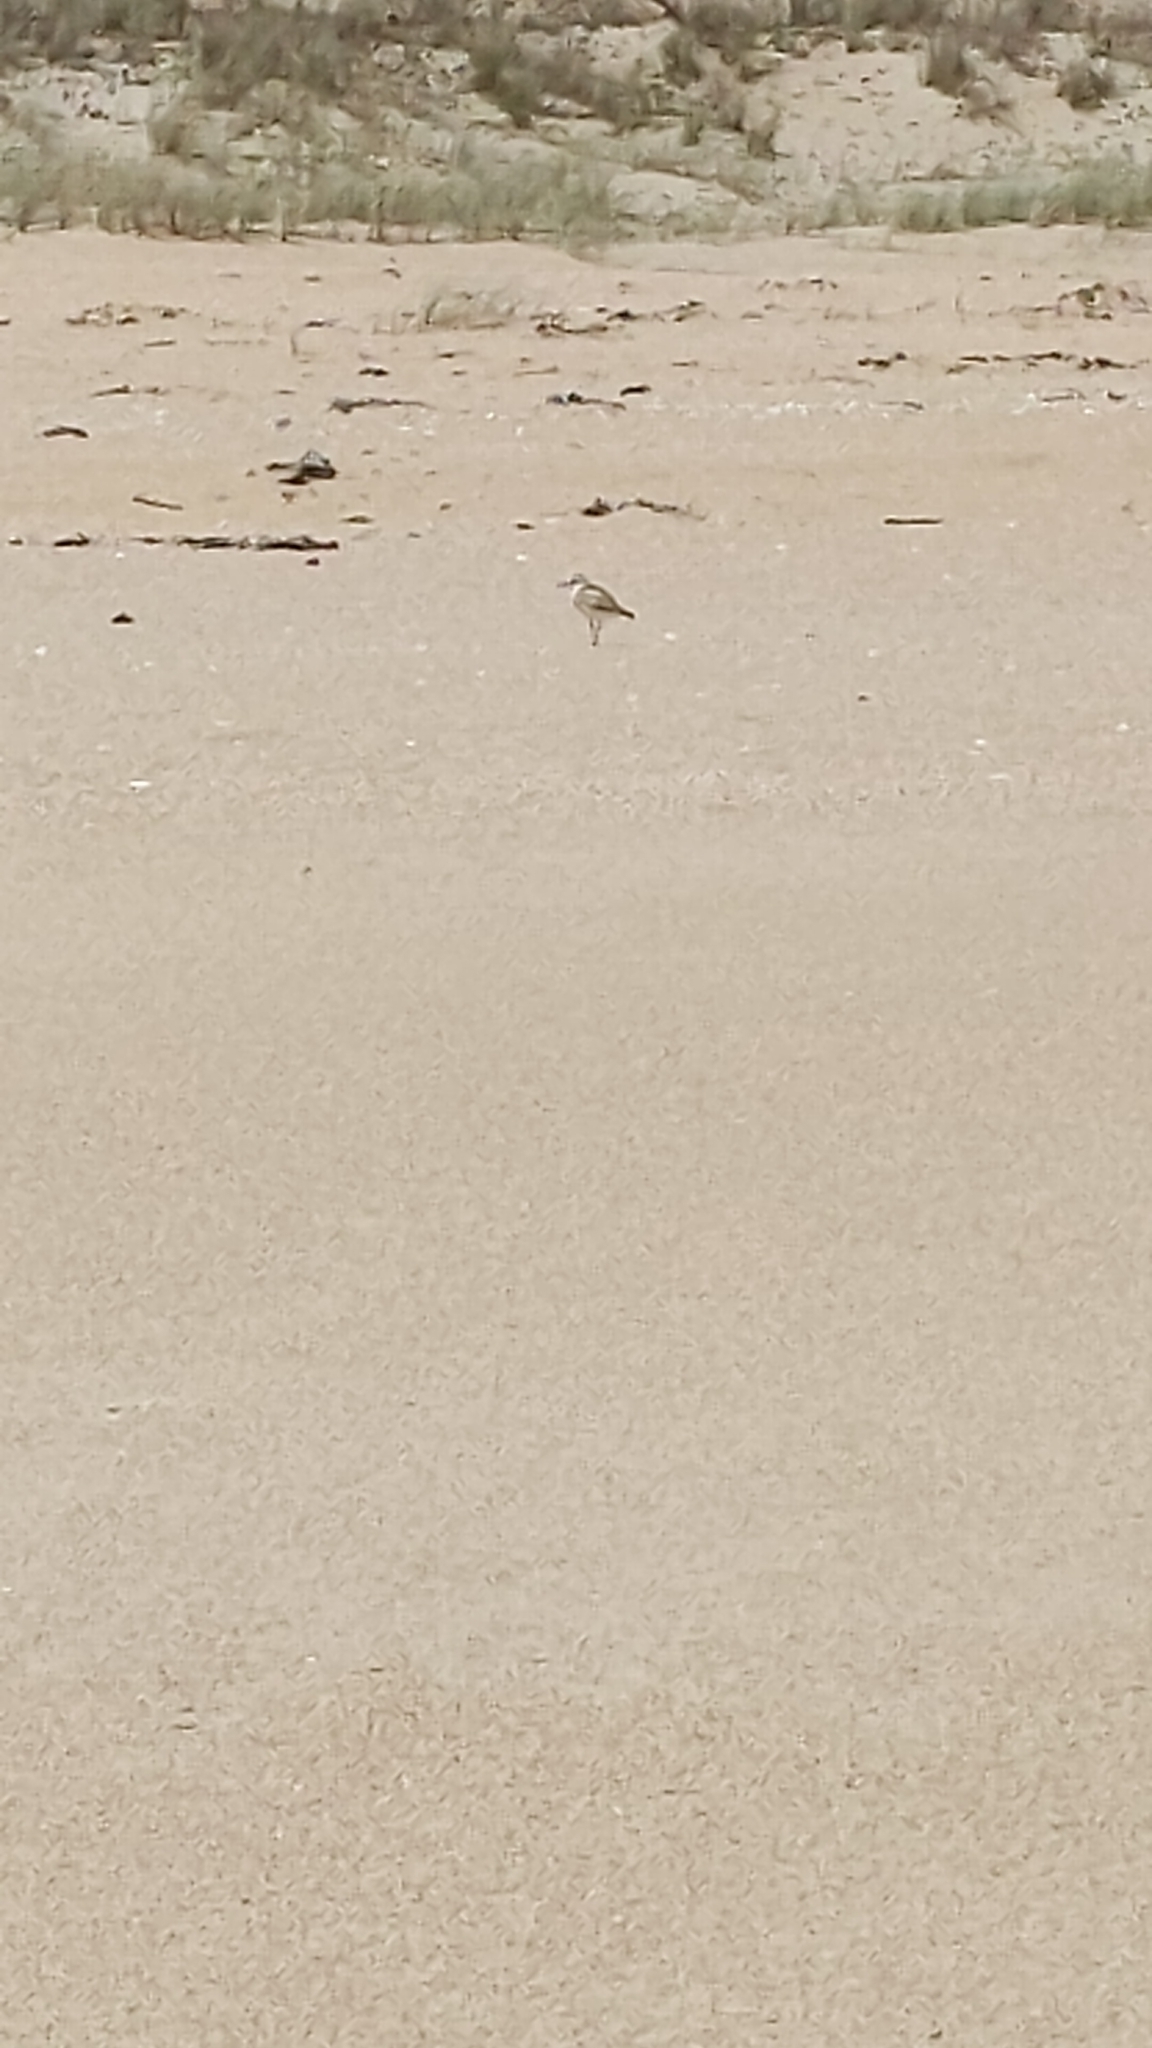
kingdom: Animalia
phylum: Chordata
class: Aves
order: Charadriiformes
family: Charadriidae
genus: Anarhynchus
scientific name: Anarhynchus
